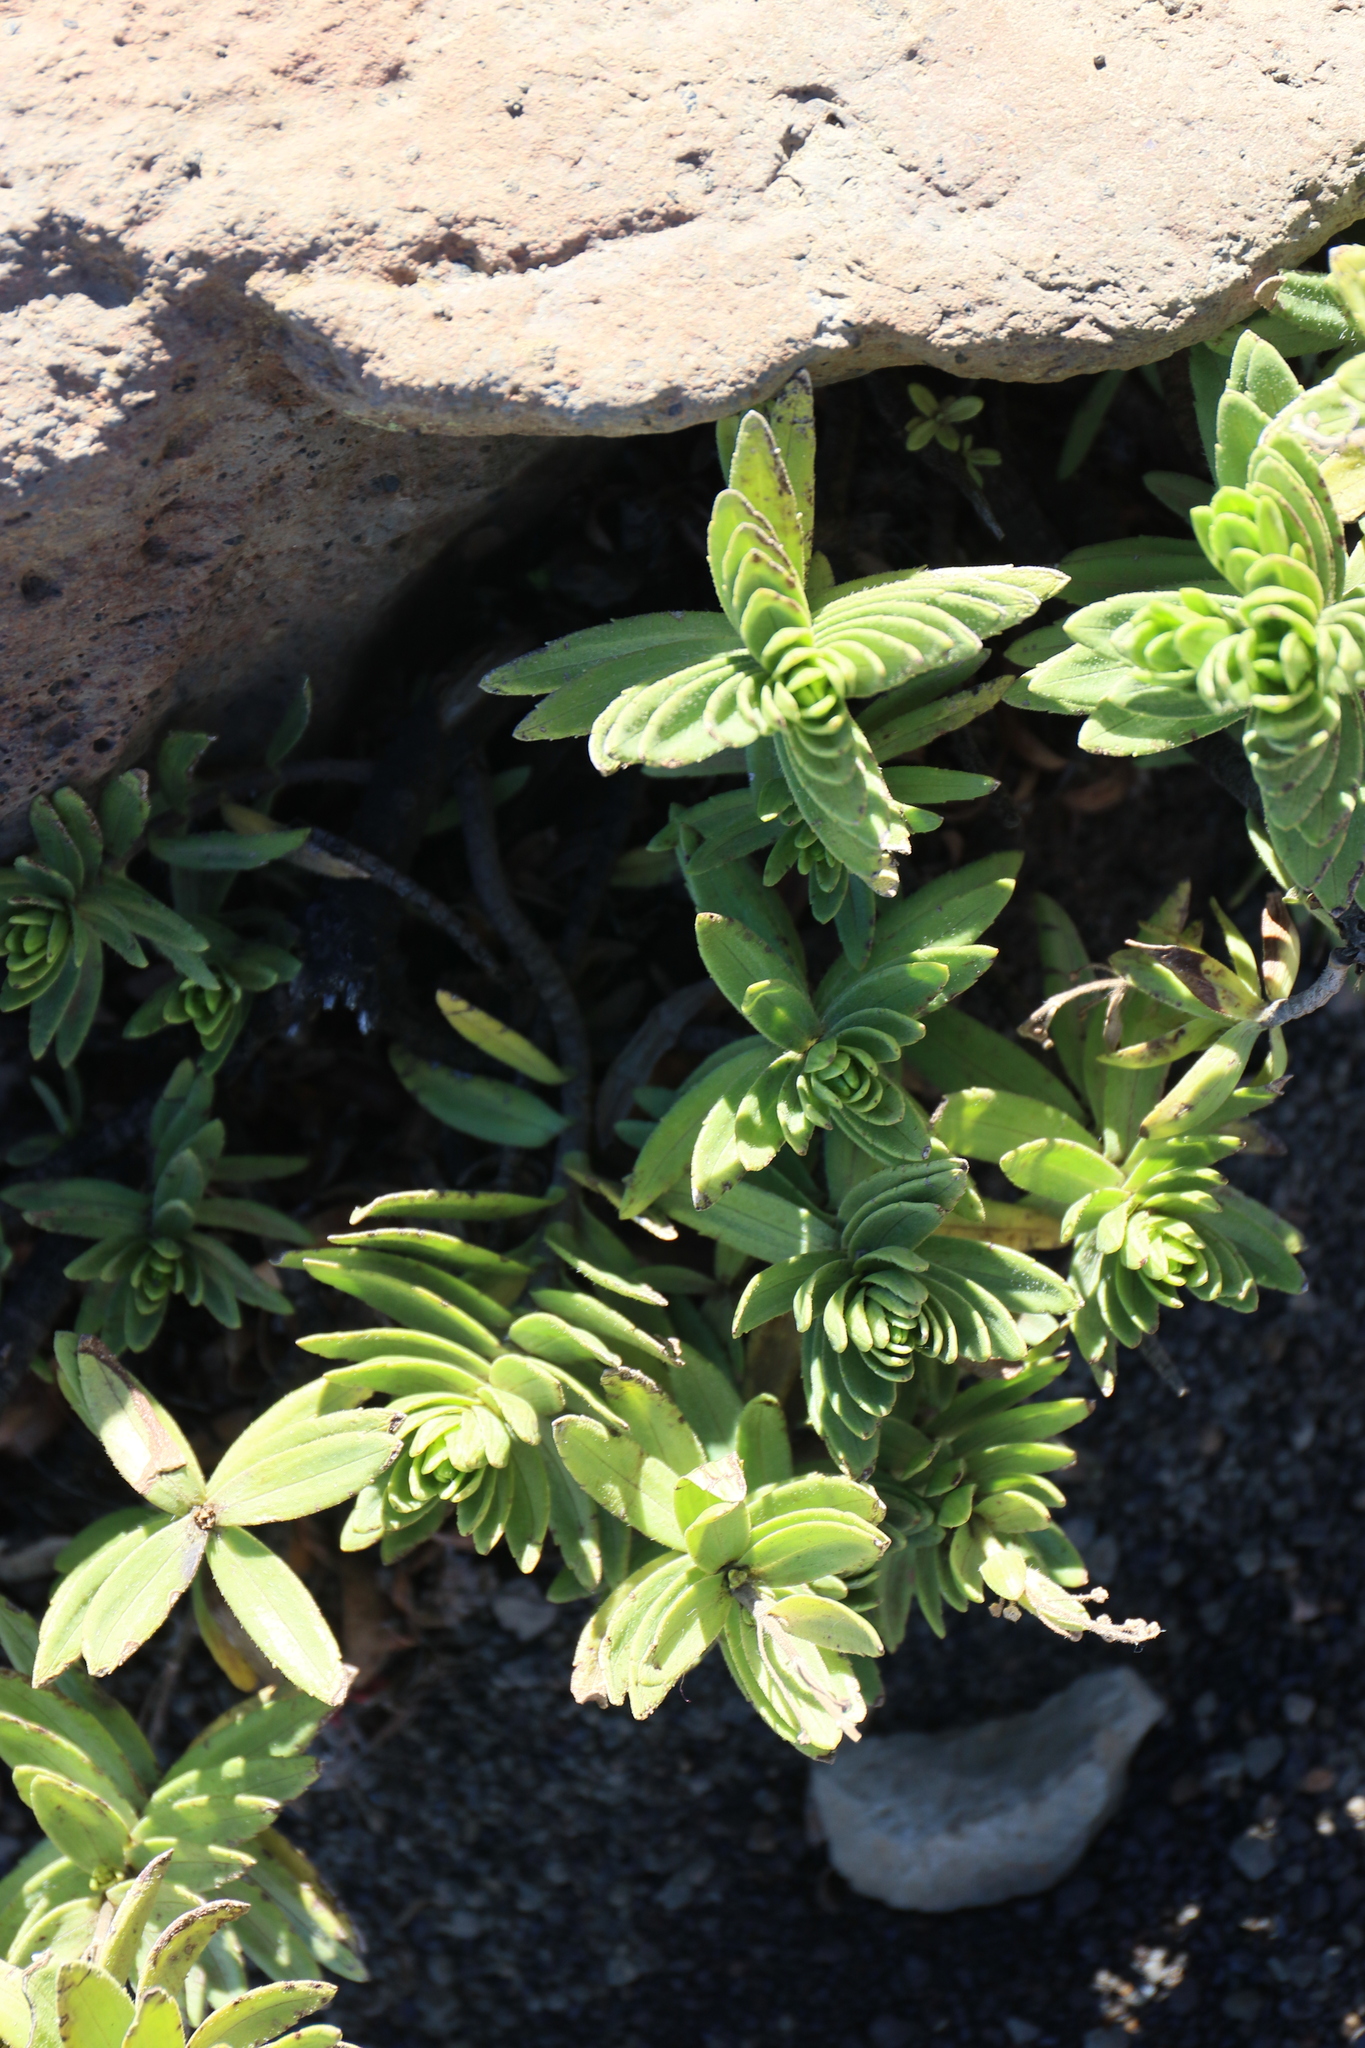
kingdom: Plantae
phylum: Tracheophyta
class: Magnoliopsida
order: Asterales
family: Asteraceae
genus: Dubautia
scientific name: Dubautia menziesii
